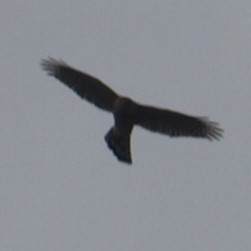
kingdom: Animalia
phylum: Chordata
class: Aves
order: Accipitriformes
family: Accipitridae
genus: Accipiter
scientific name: Accipiter cooperii
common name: Cooper's hawk
